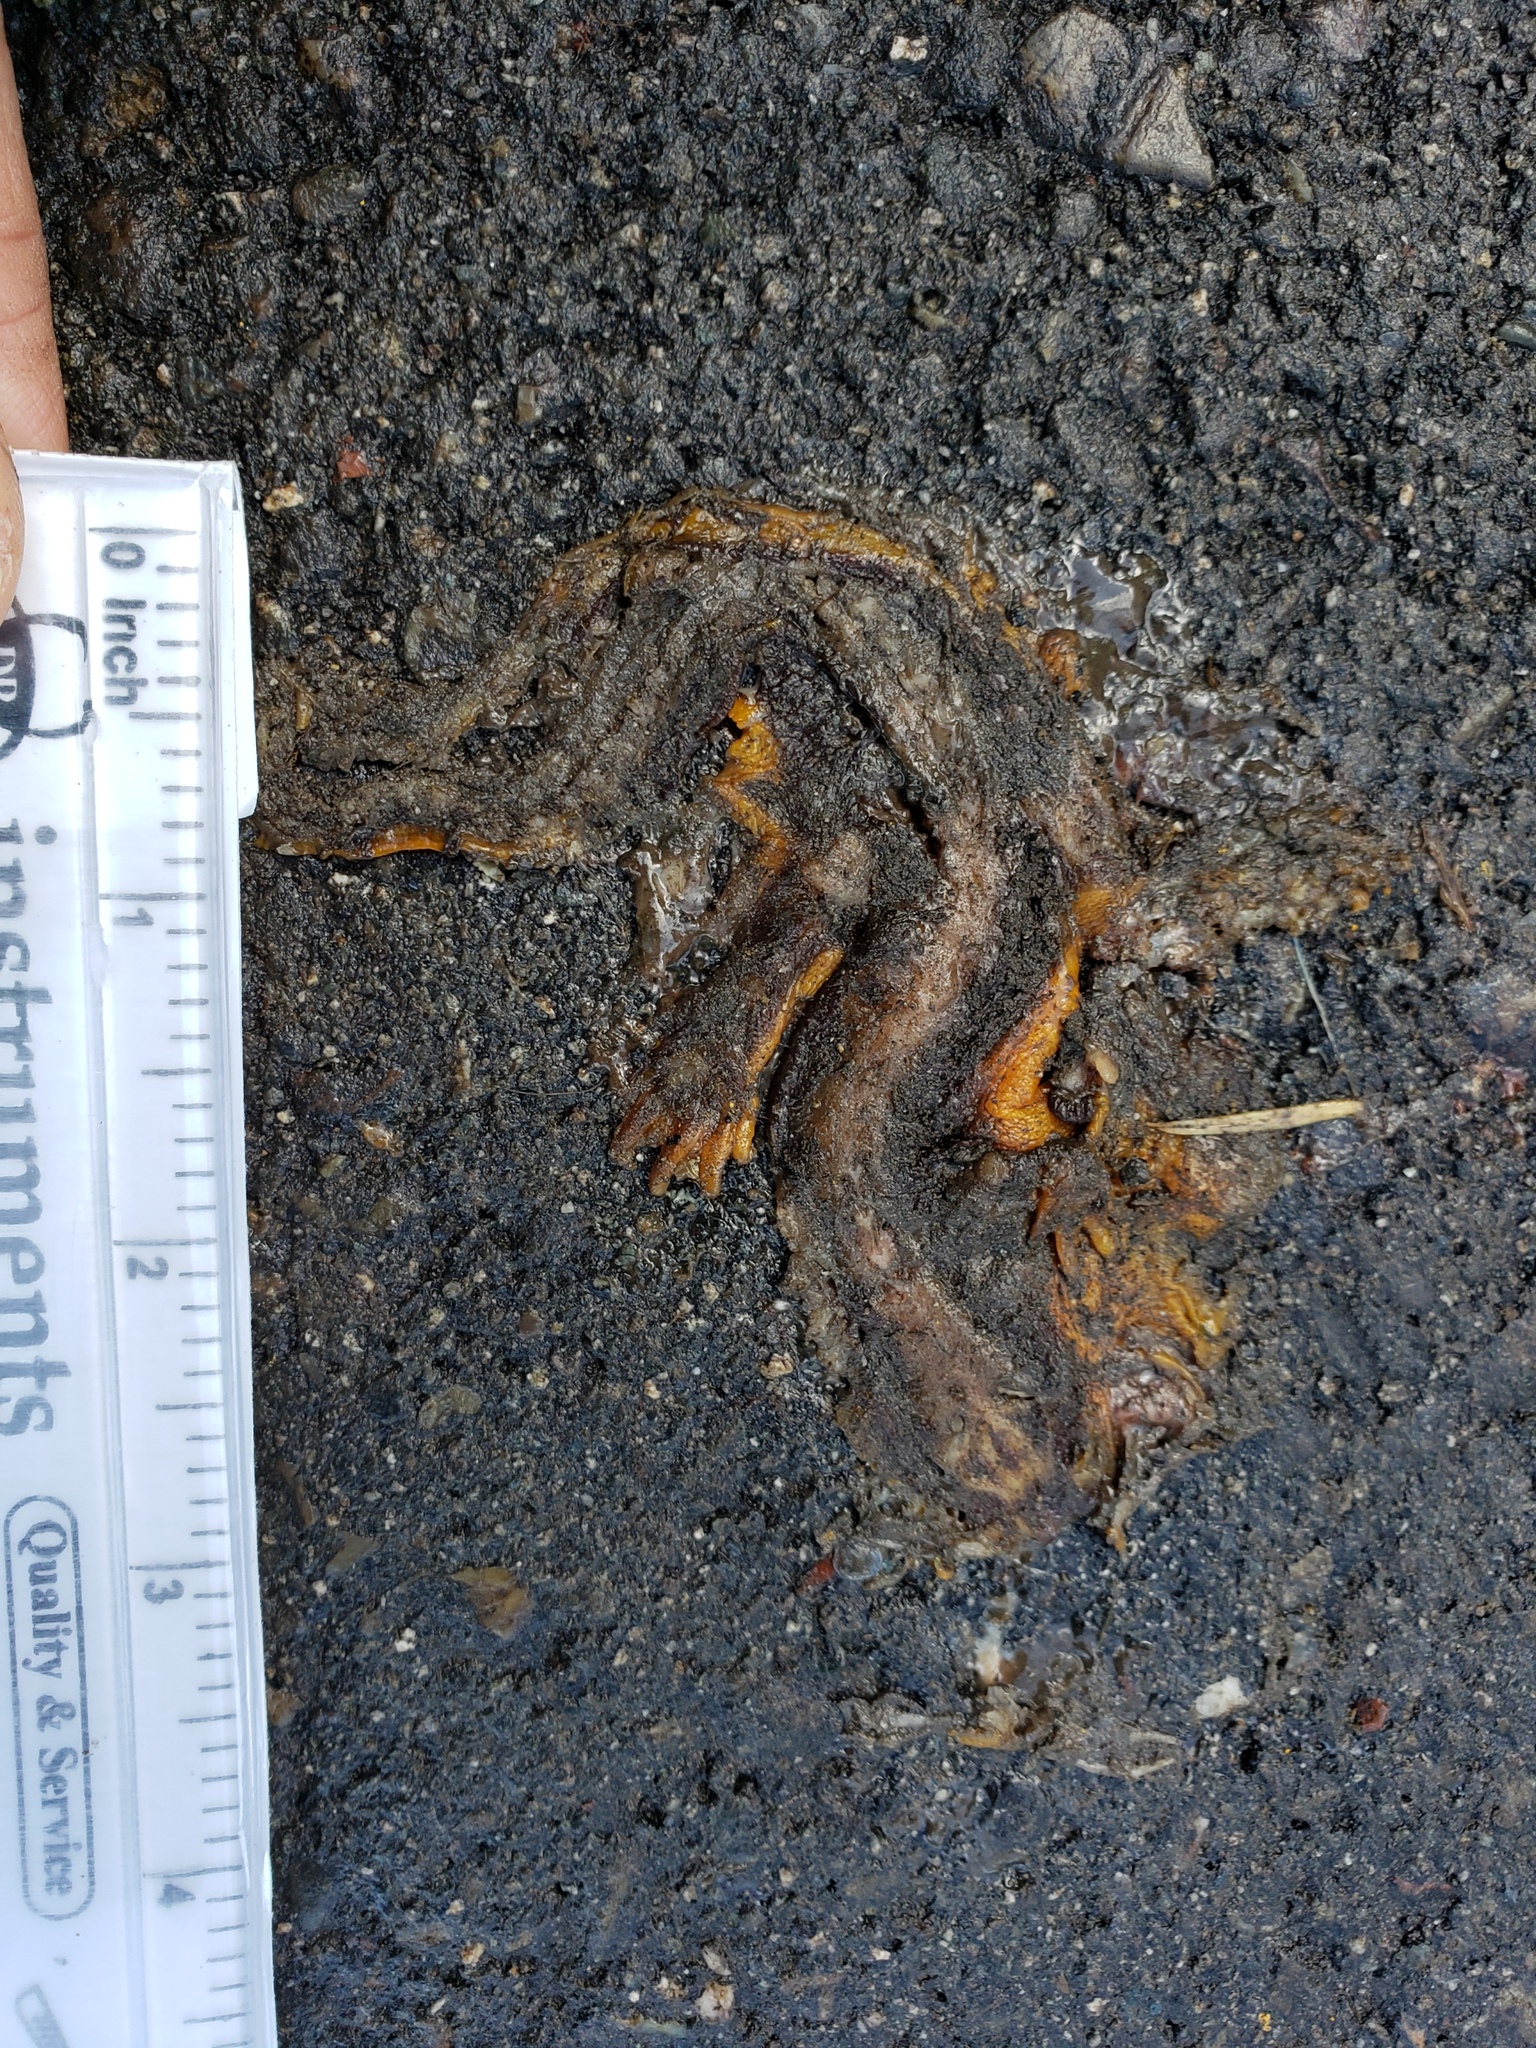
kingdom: Animalia
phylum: Chordata
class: Amphibia
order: Caudata
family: Salamandridae
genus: Taricha
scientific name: Taricha
